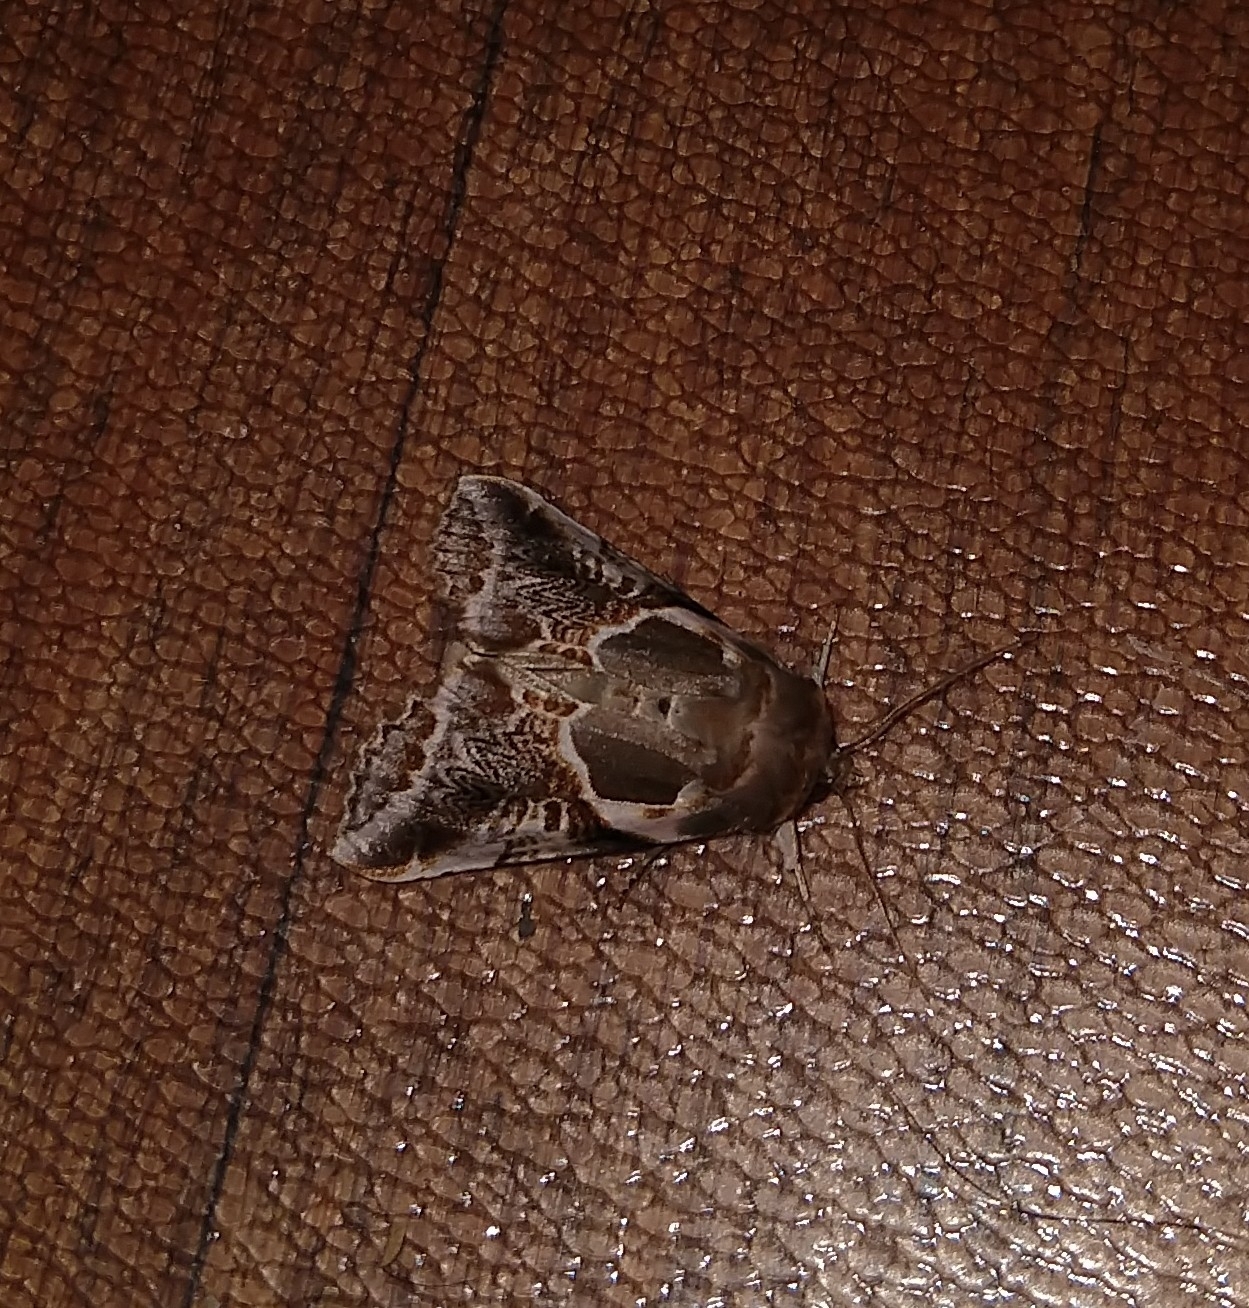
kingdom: Animalia
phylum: Arthropoda
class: Insecta
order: Lepidoptera
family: Drepanidae
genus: Habrosyne
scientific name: Habrosyne scripta
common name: Lettered habrosyne moth
